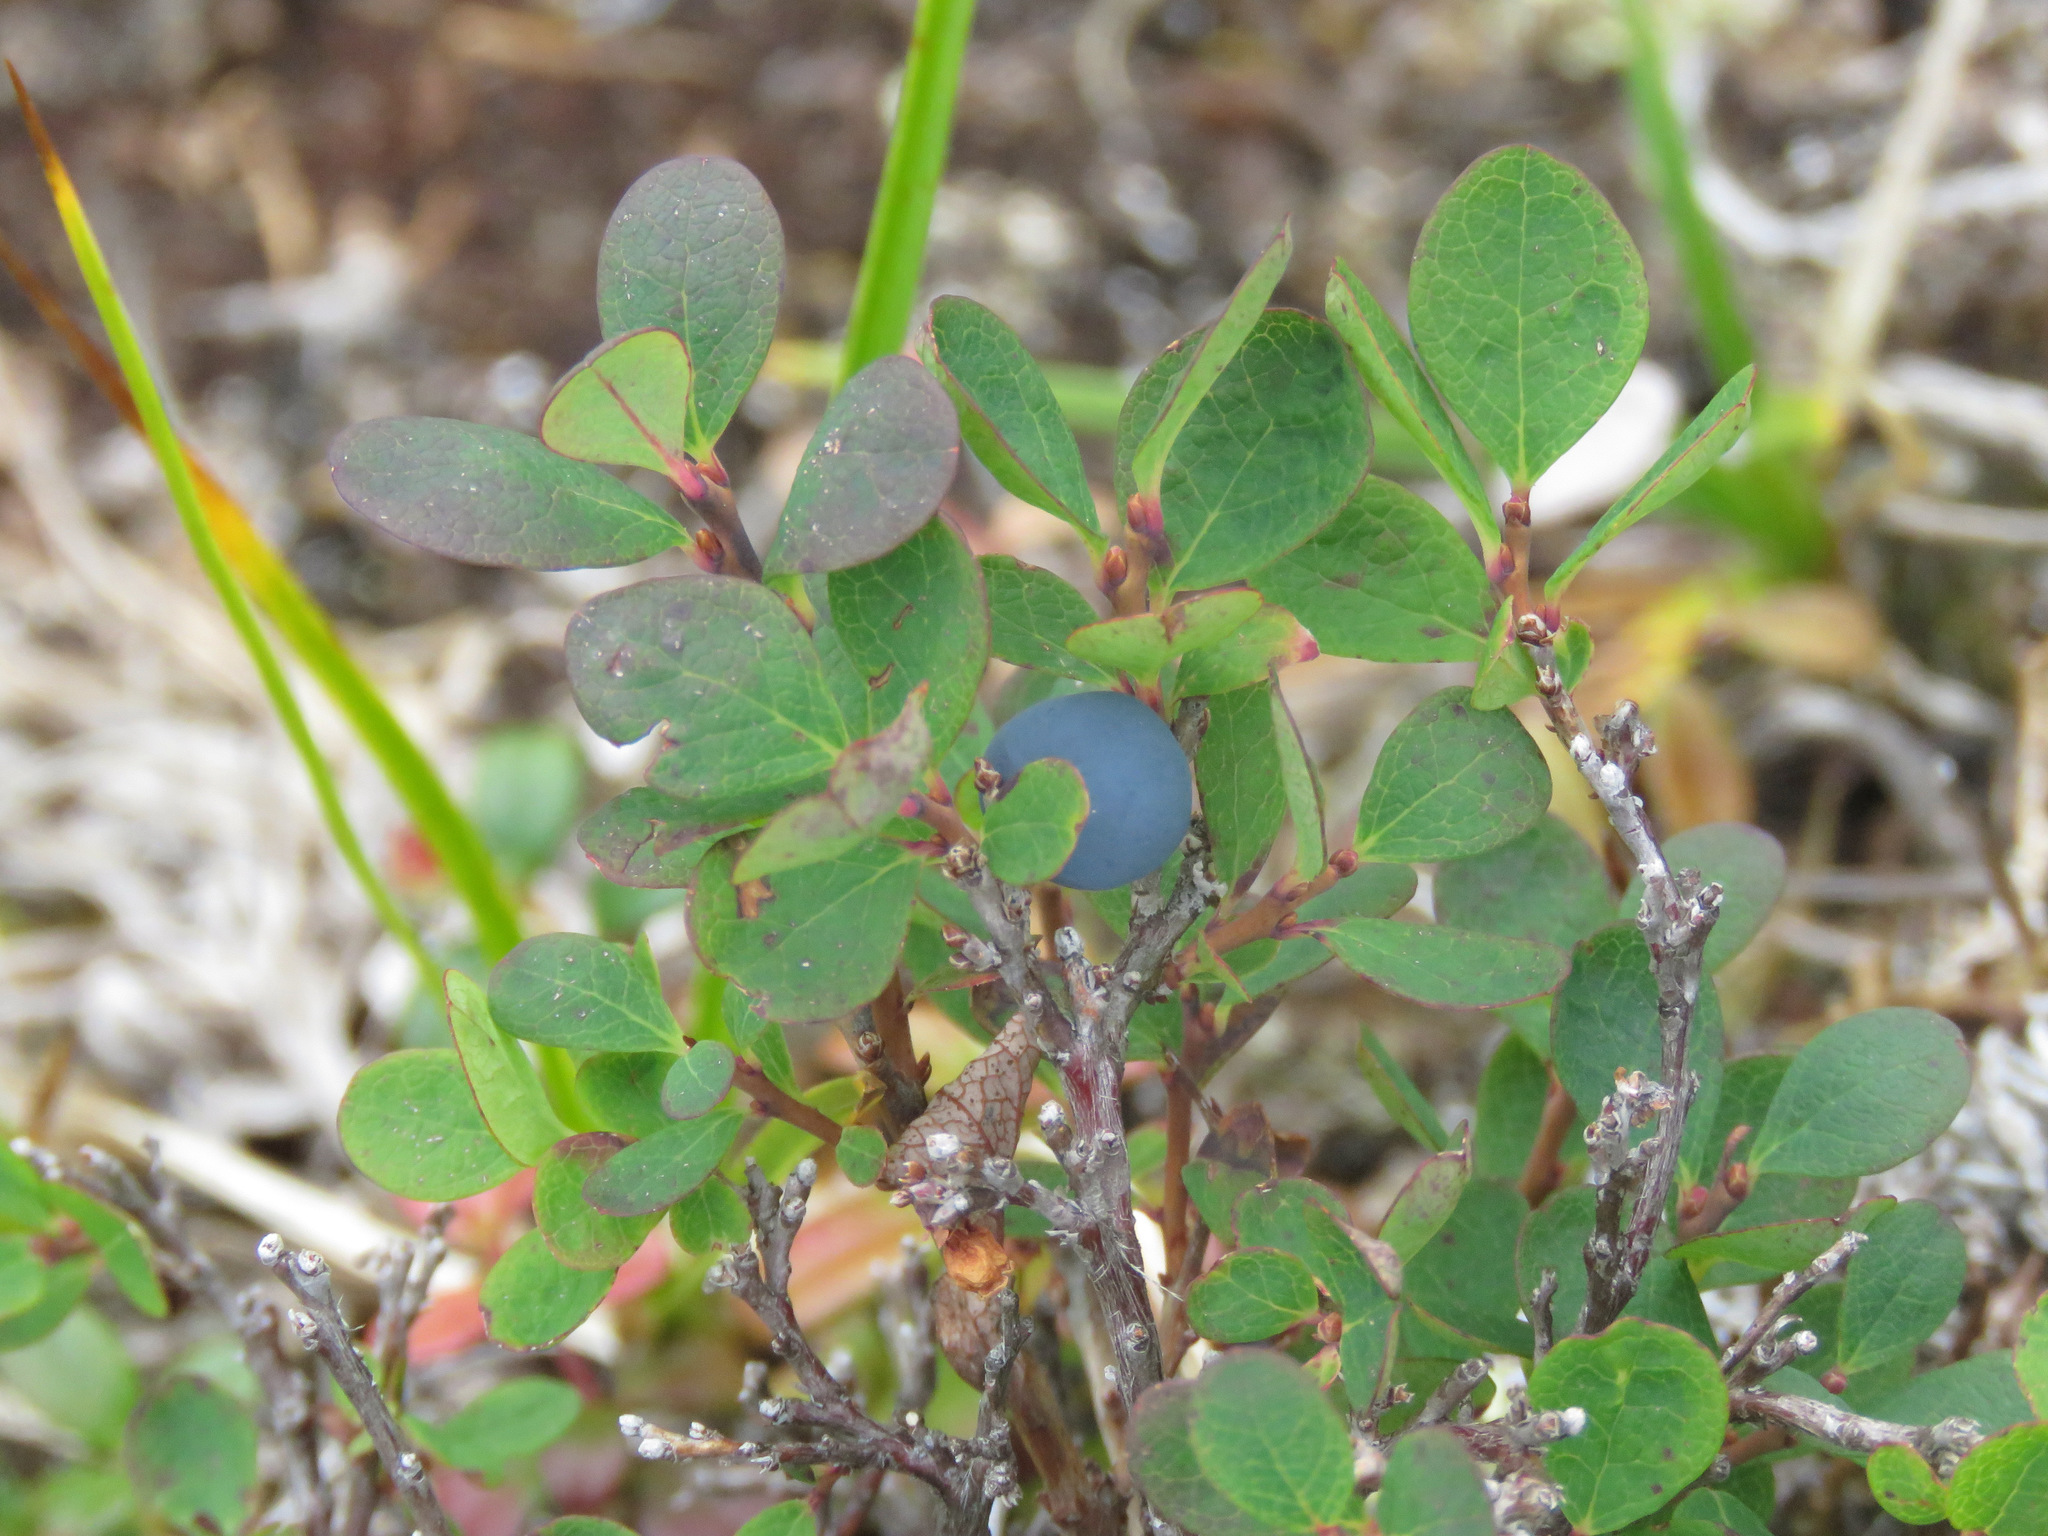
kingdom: Plantae
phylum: Tracheophyta
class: Magnoliopsida
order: Ericales
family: Ericaceae
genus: Vaccinium
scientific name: Vaccinium uliginosum
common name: Bog bilberry
